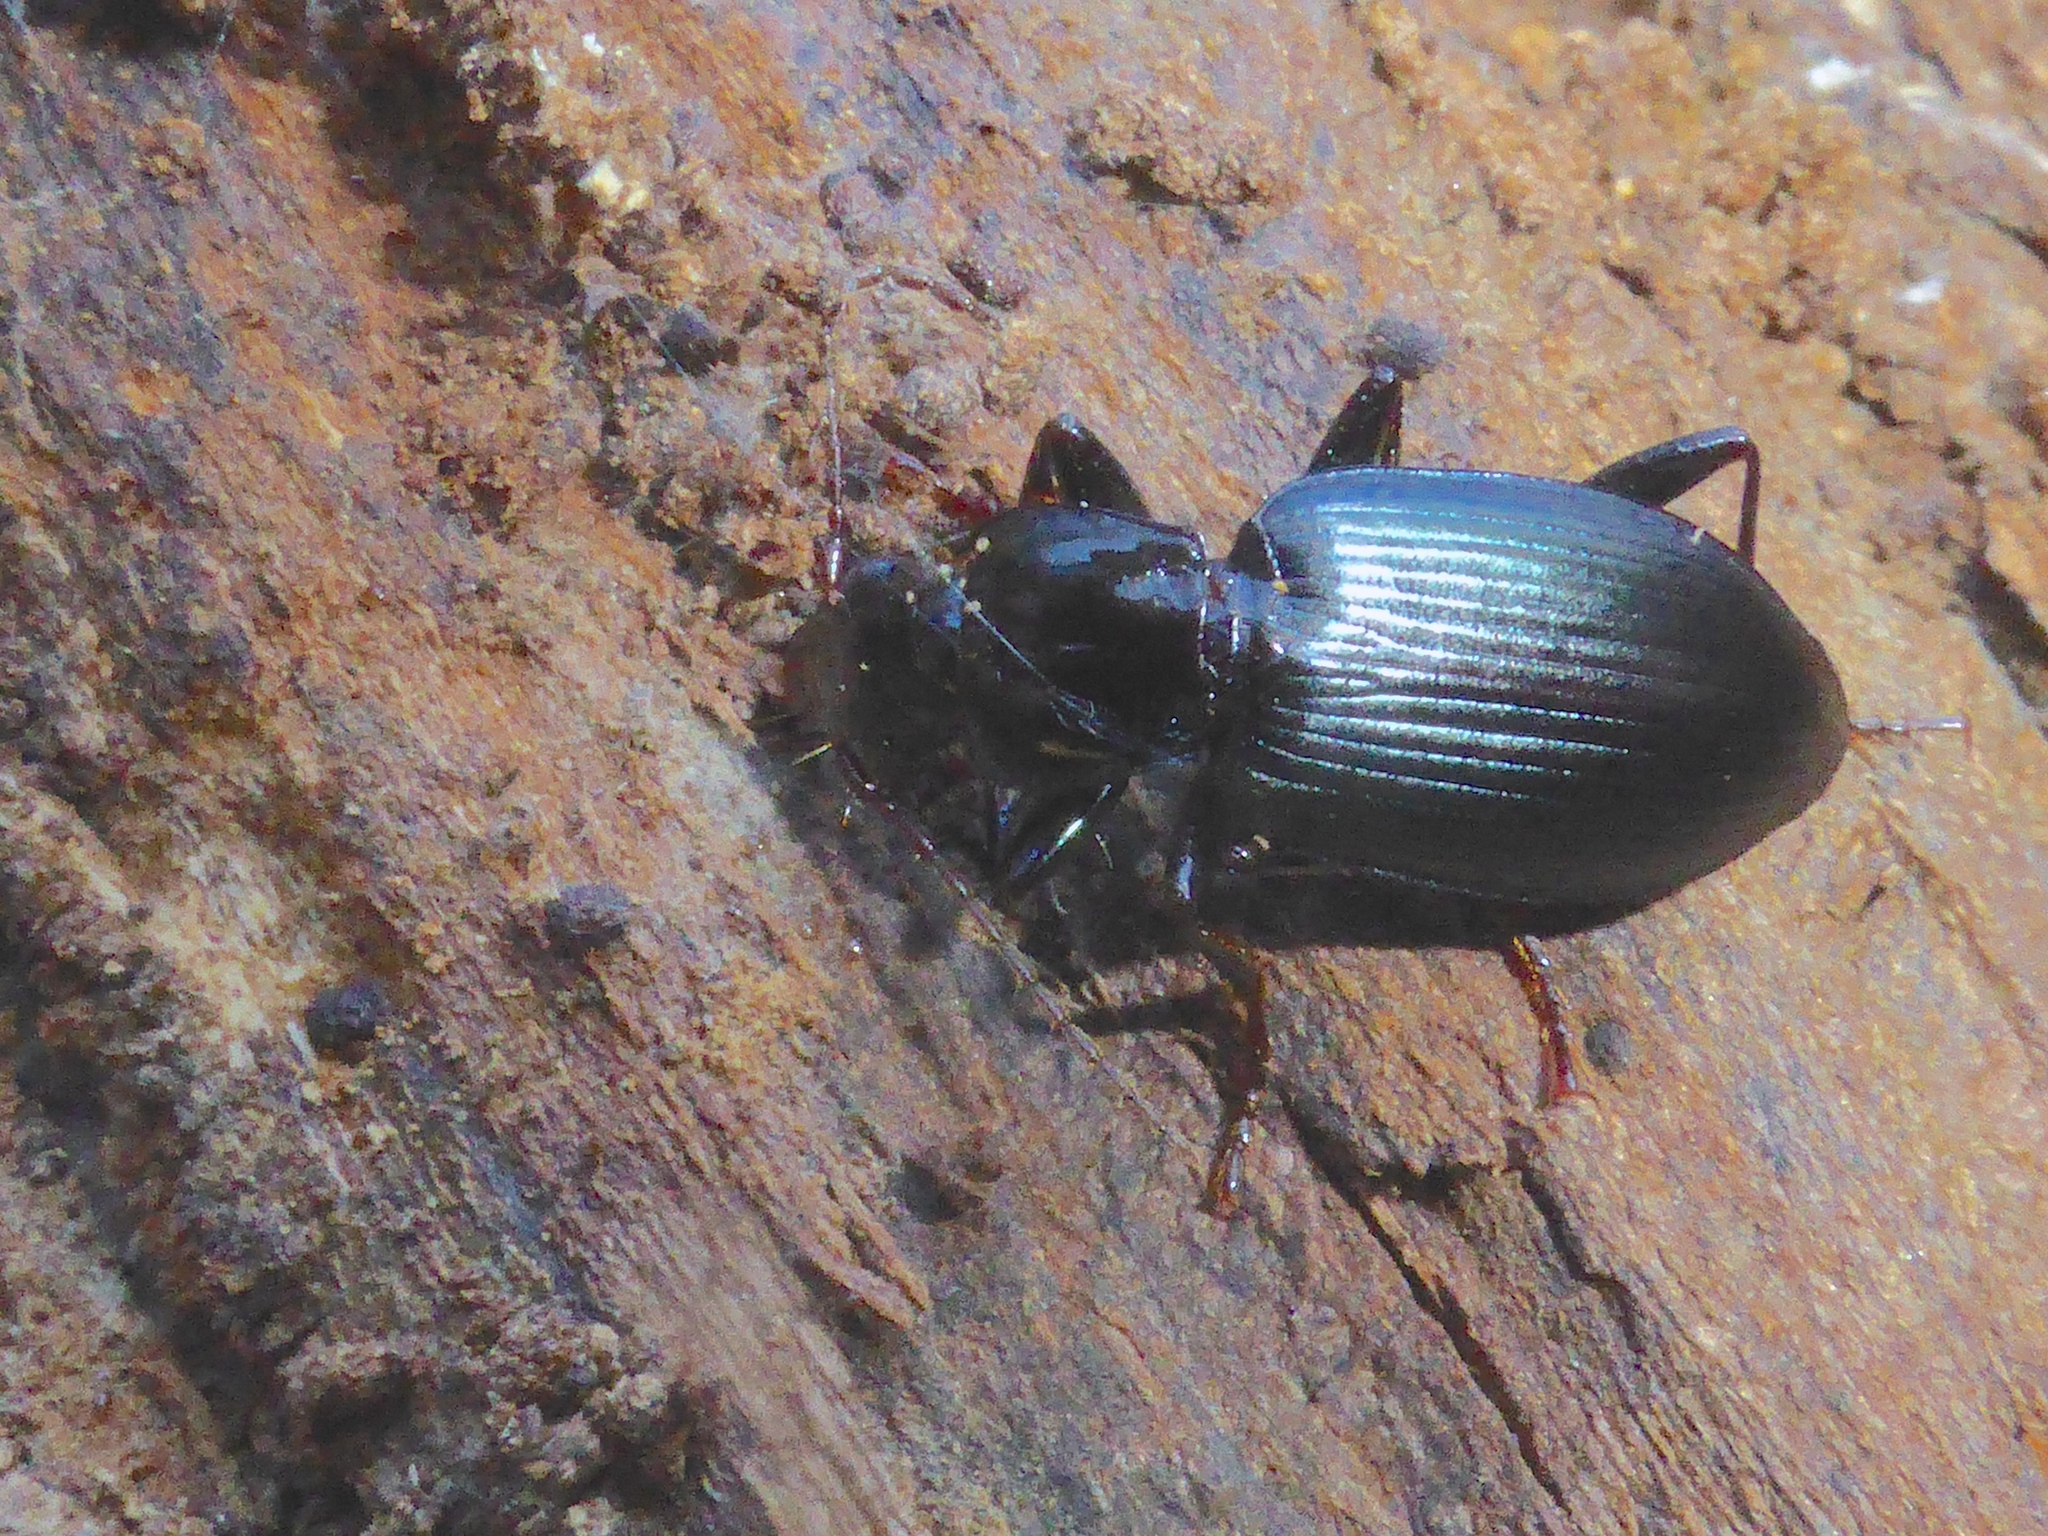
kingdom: Animalia
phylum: Arthropoda
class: Insecta
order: Coleoptera
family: Carabidae
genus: Laemostenus
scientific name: Laemostenus complanatus
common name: Cosmopolitan ground beetle
